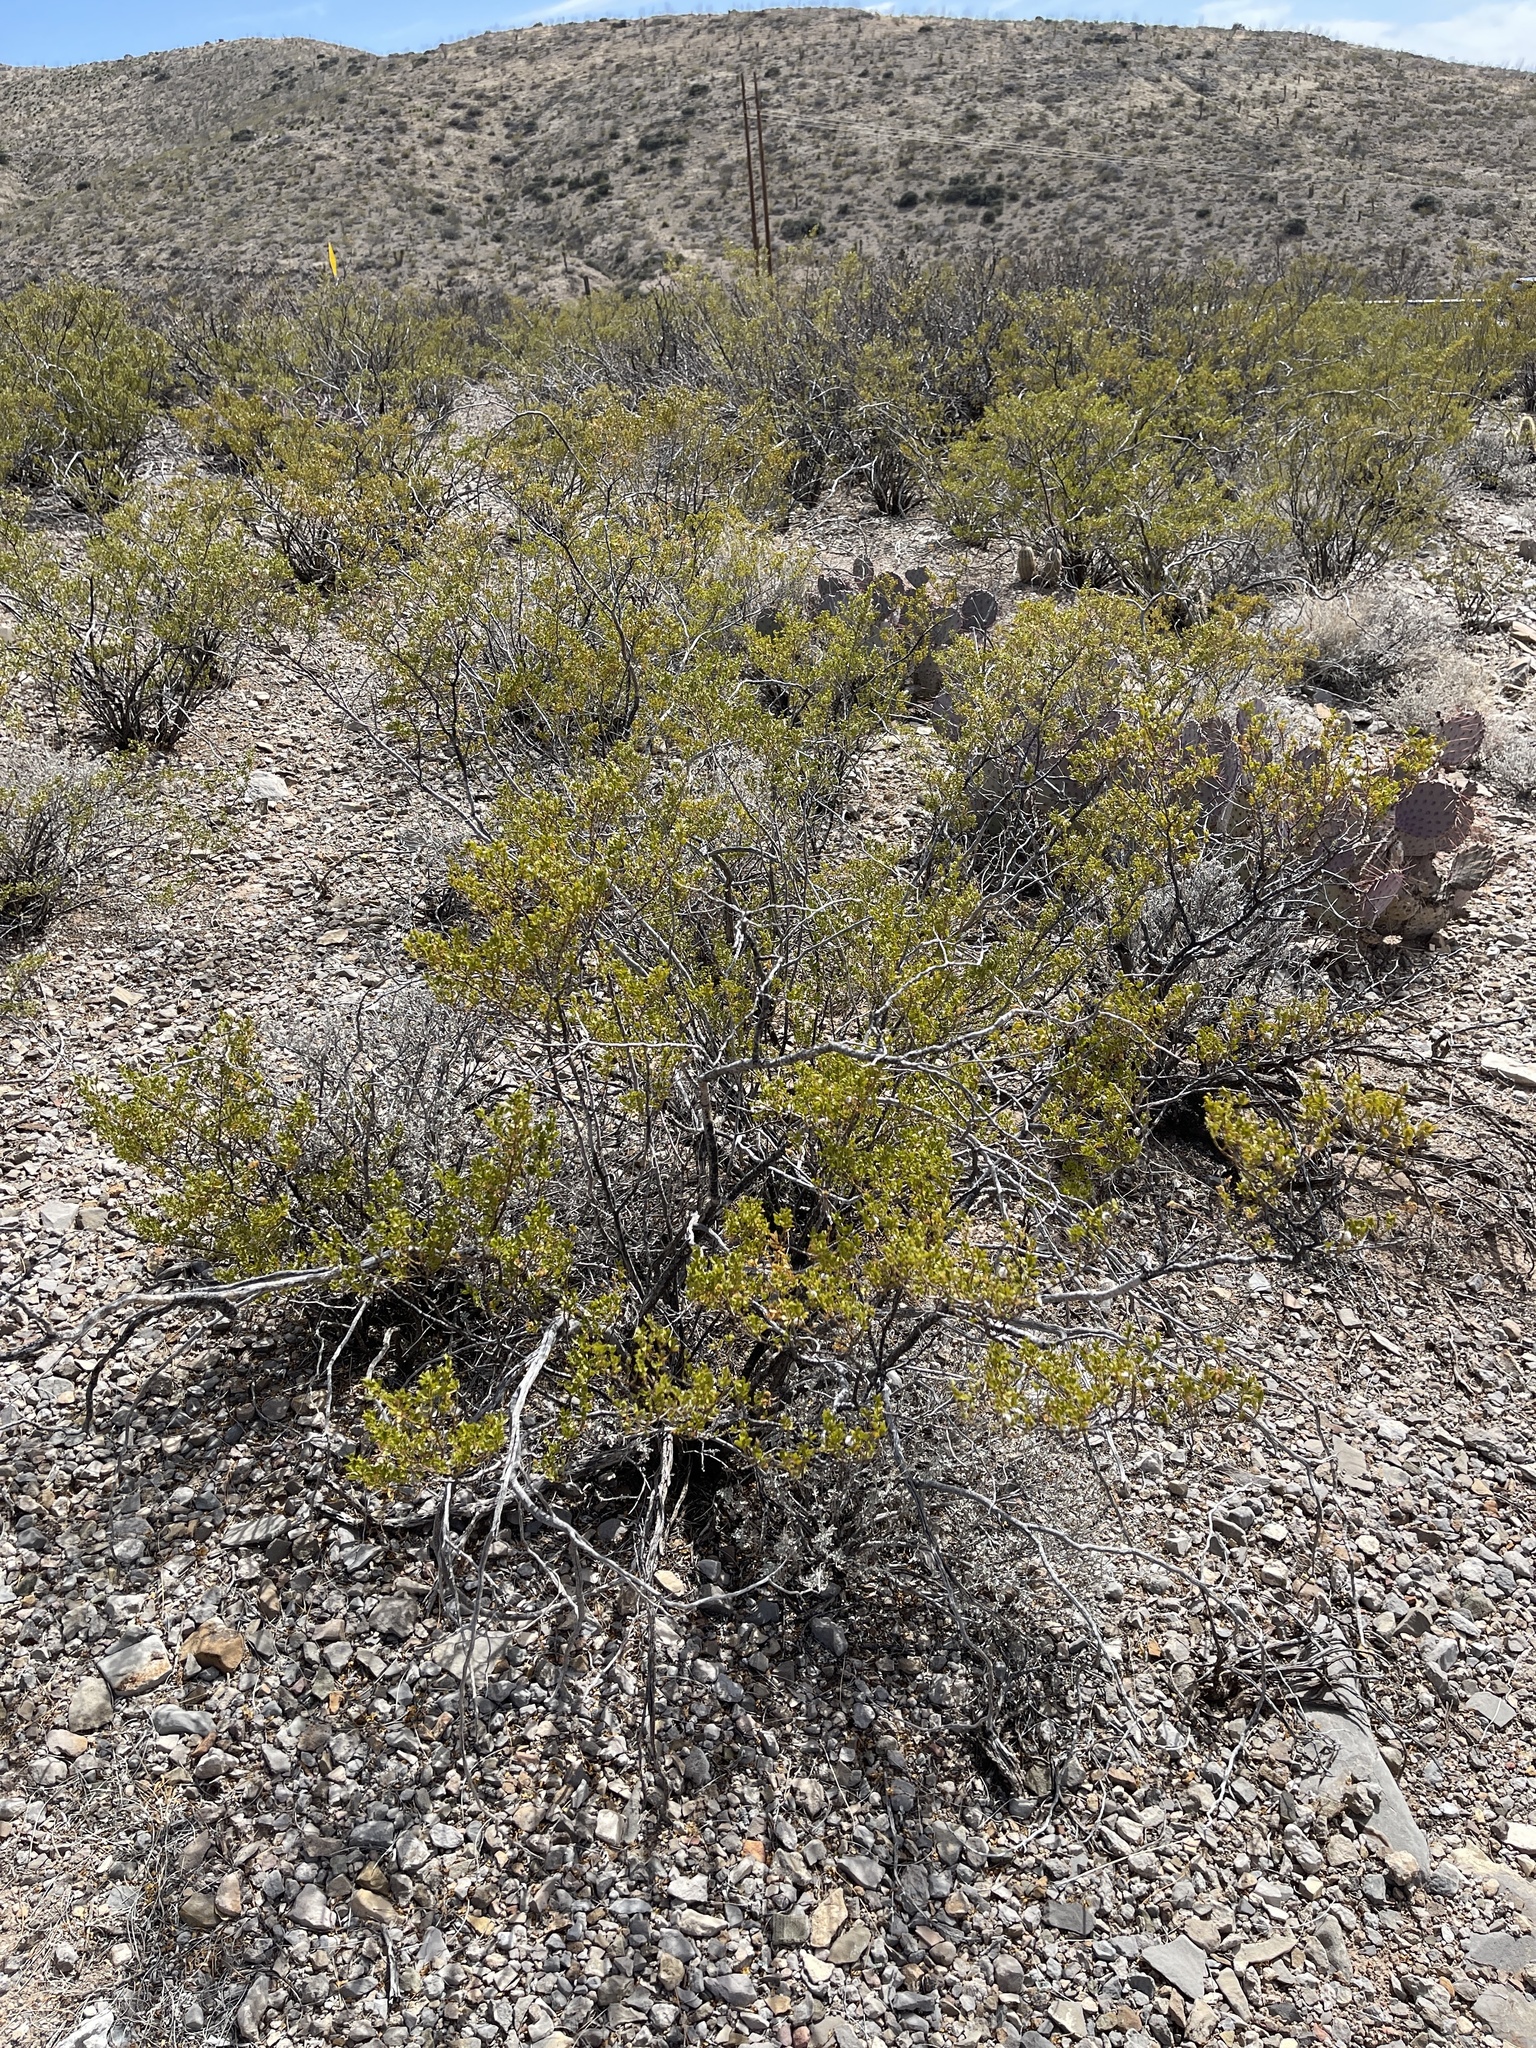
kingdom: Plantae
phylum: Tracheophyta
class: Magnoliopsida
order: Zygophyllales
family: Zygophyllaceae
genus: Larrea
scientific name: Larrea tridentata
